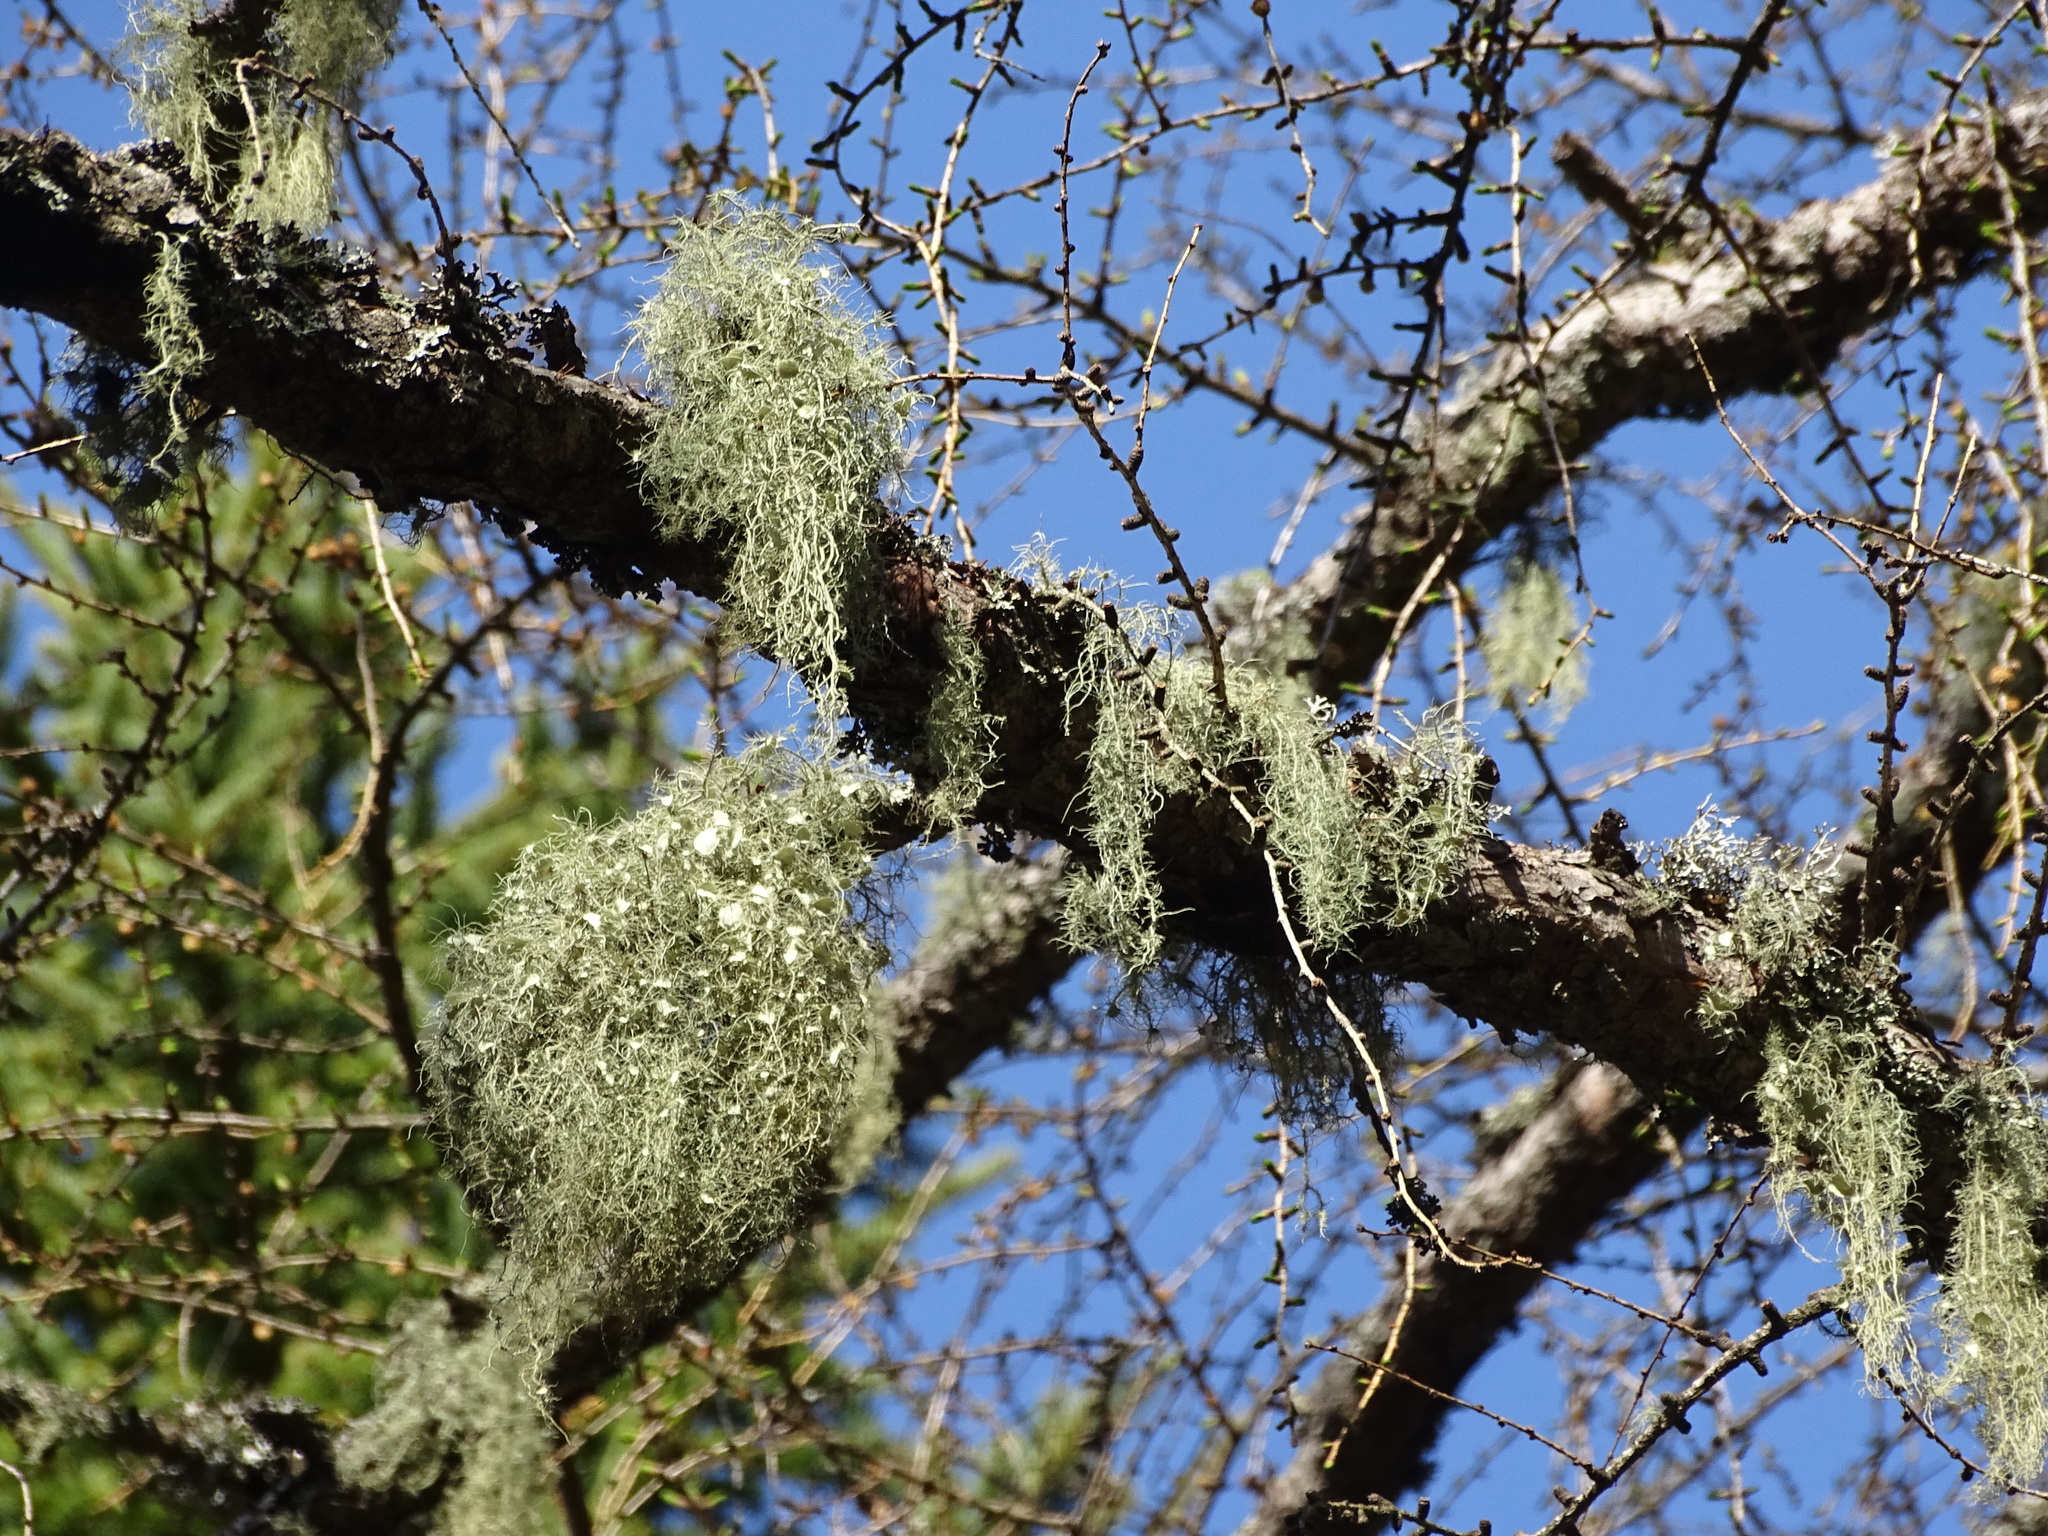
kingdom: Fungi
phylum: Ascomycota
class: Lecanoromycetes
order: Lecanorales
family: Parmeliaceae
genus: Usnea
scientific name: Usnea intermedia
